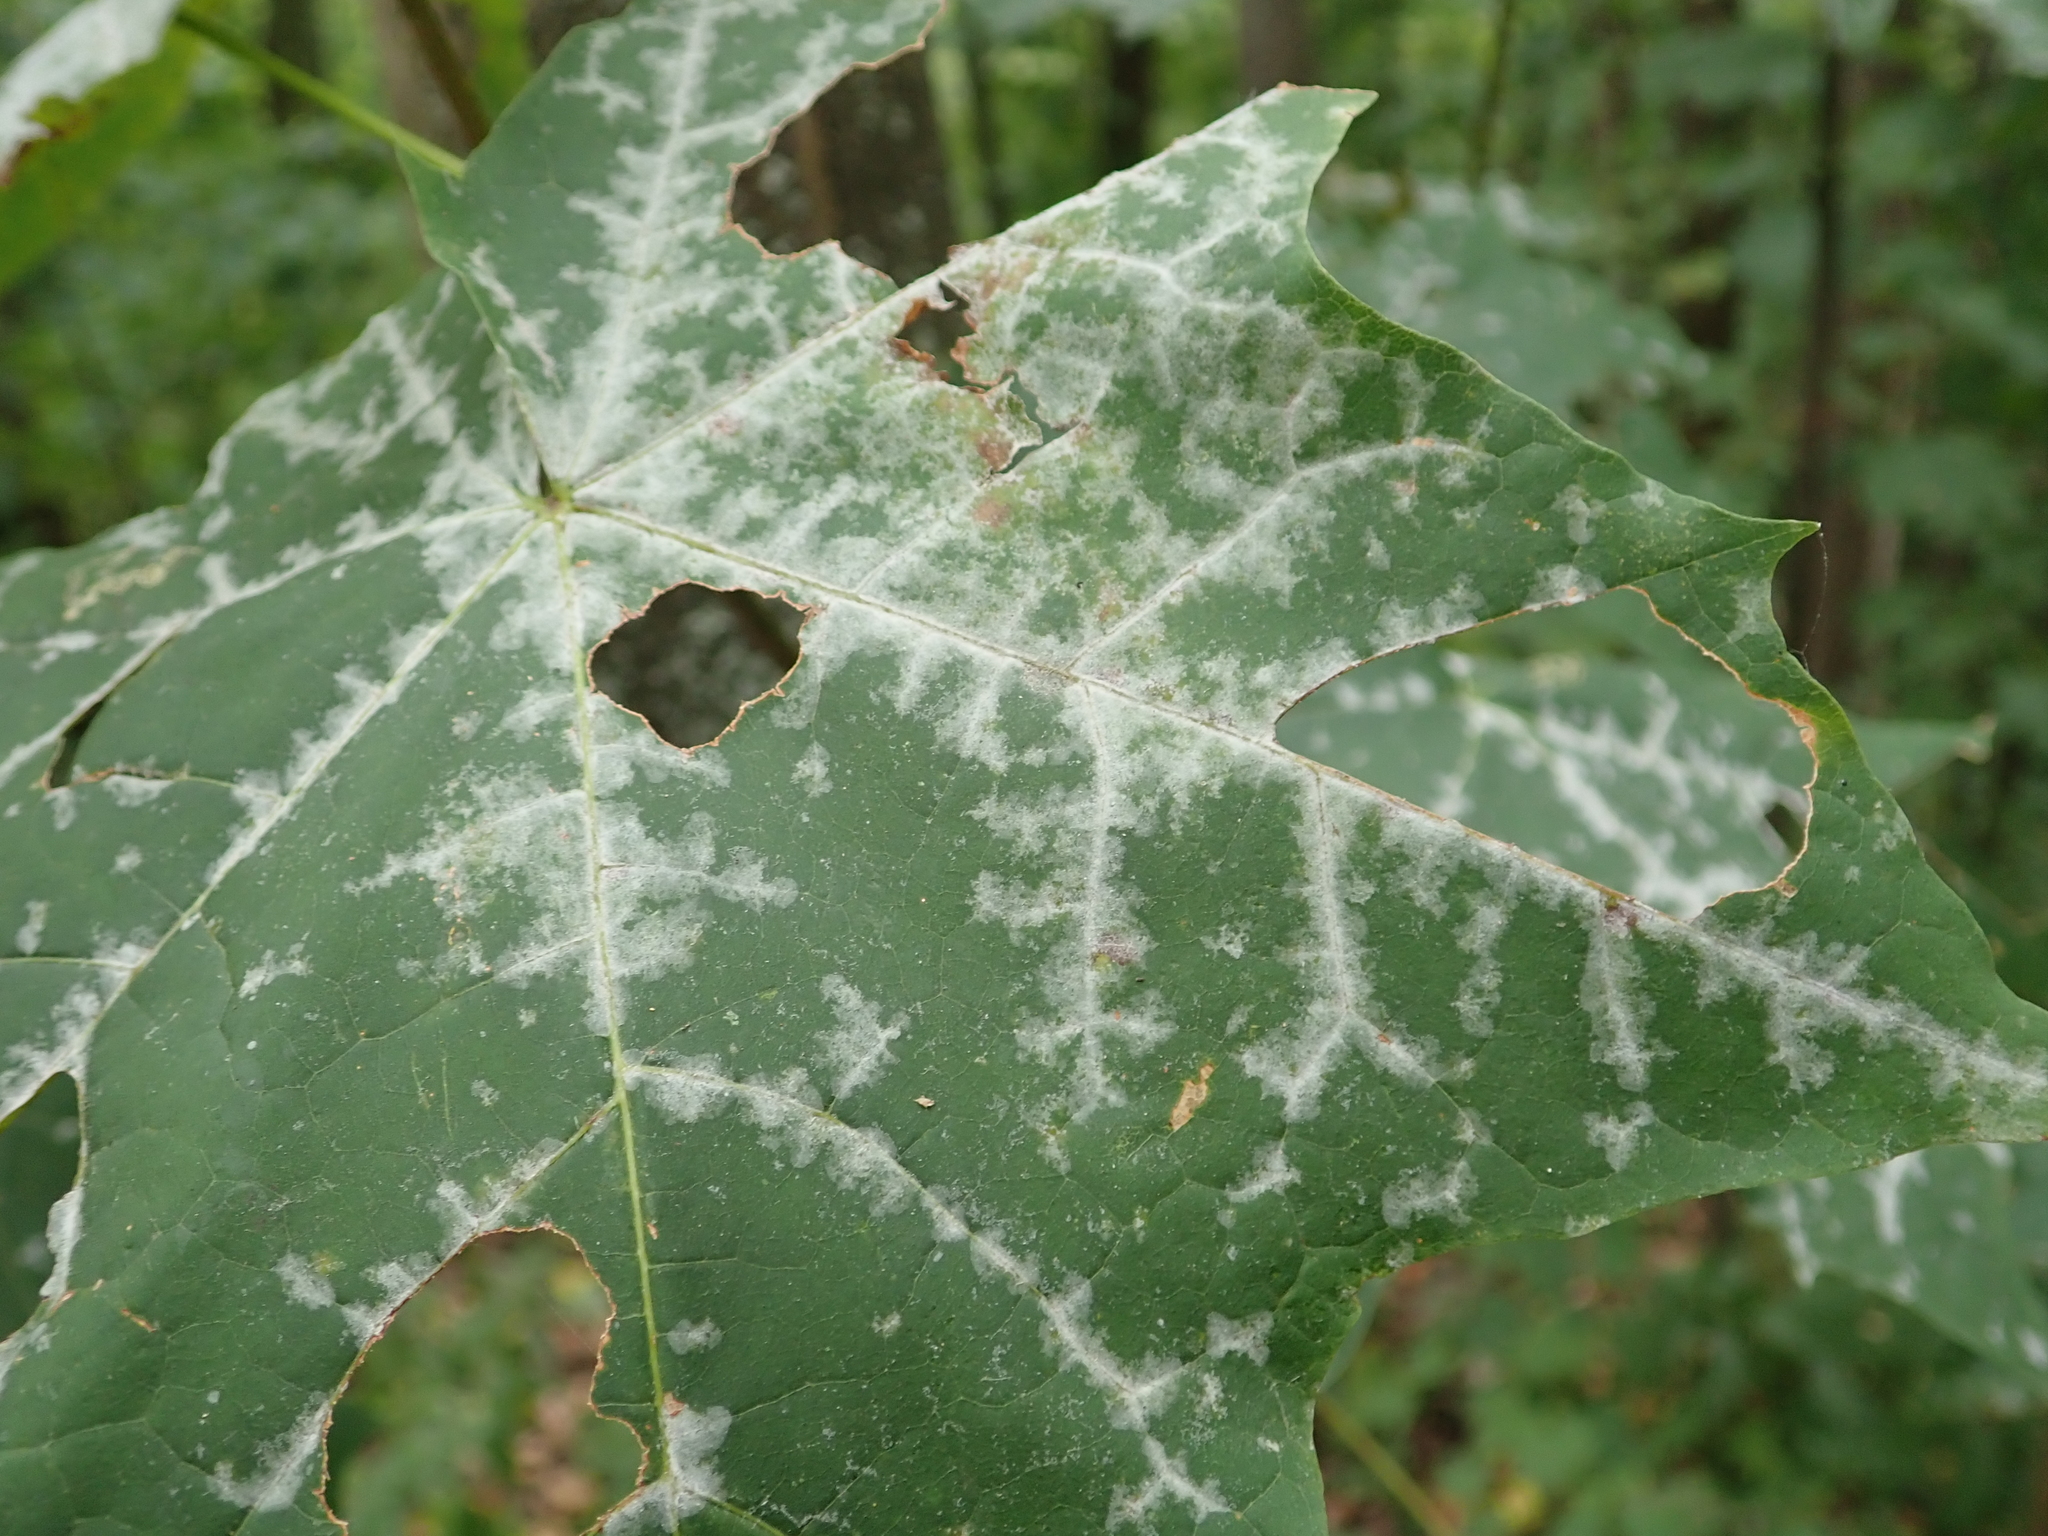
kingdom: Fungi
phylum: Ascomycota
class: Leotiomycetes
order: Helotiales
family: Erysiphaceae
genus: Sawadaea
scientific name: Sawadaea tulasnei
